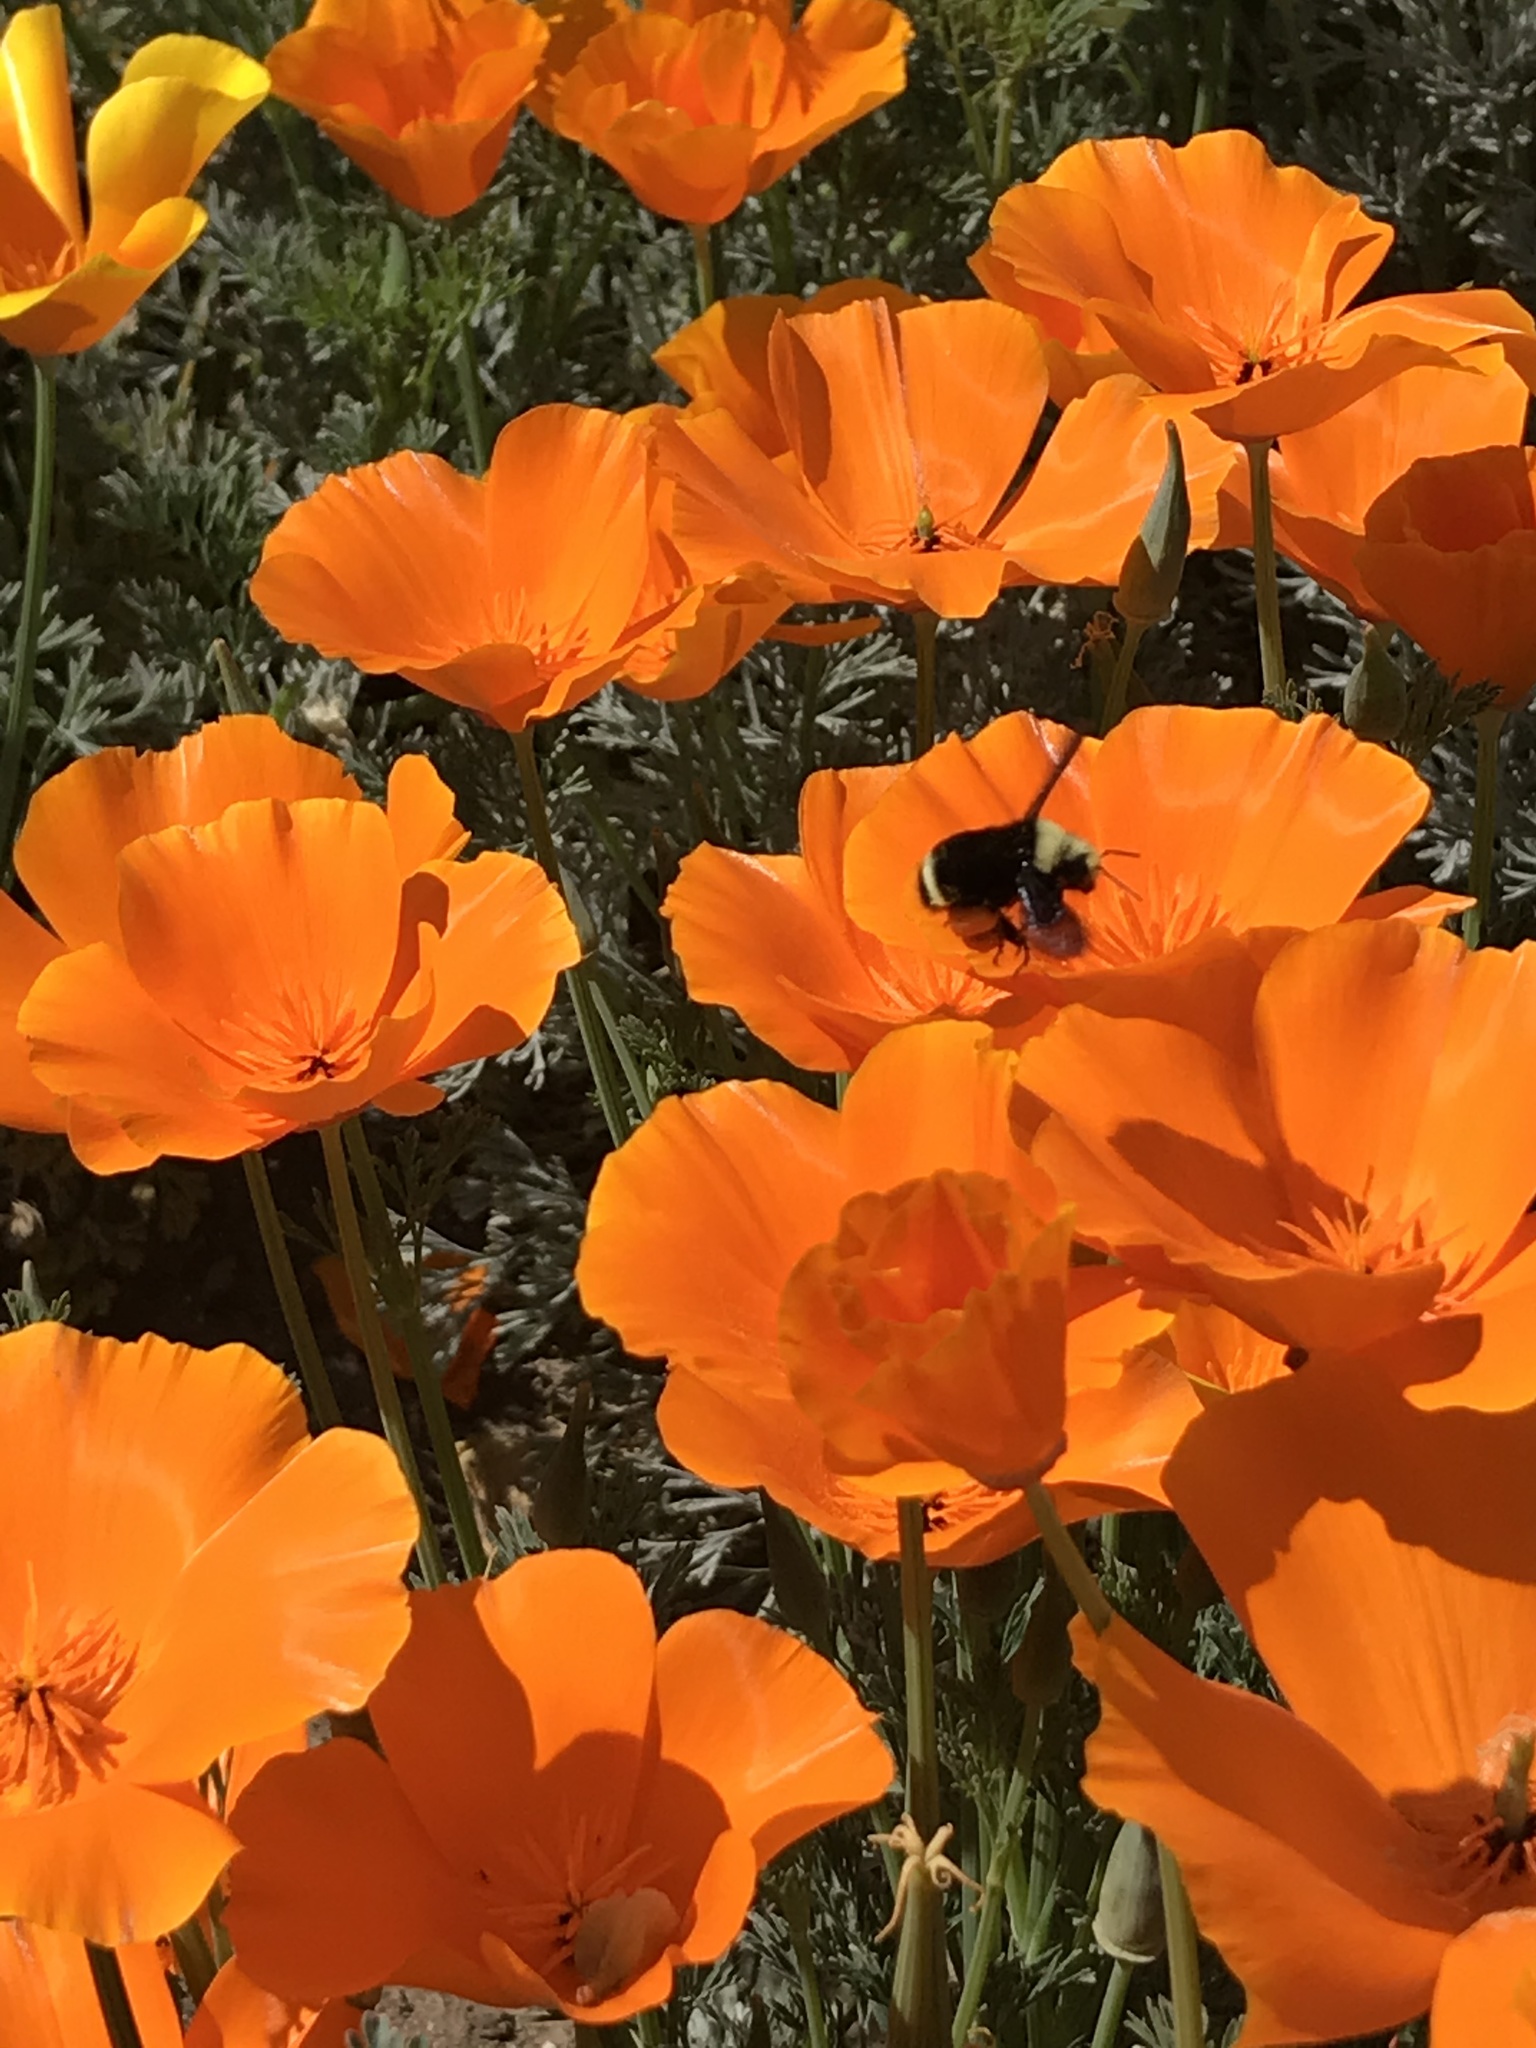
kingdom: Animalia
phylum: Arthropoda
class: Insecta
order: Hymenoptera
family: Apidae
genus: Bombus
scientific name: Bombus vosnesenskii
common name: Vosnesensky bumble bee
